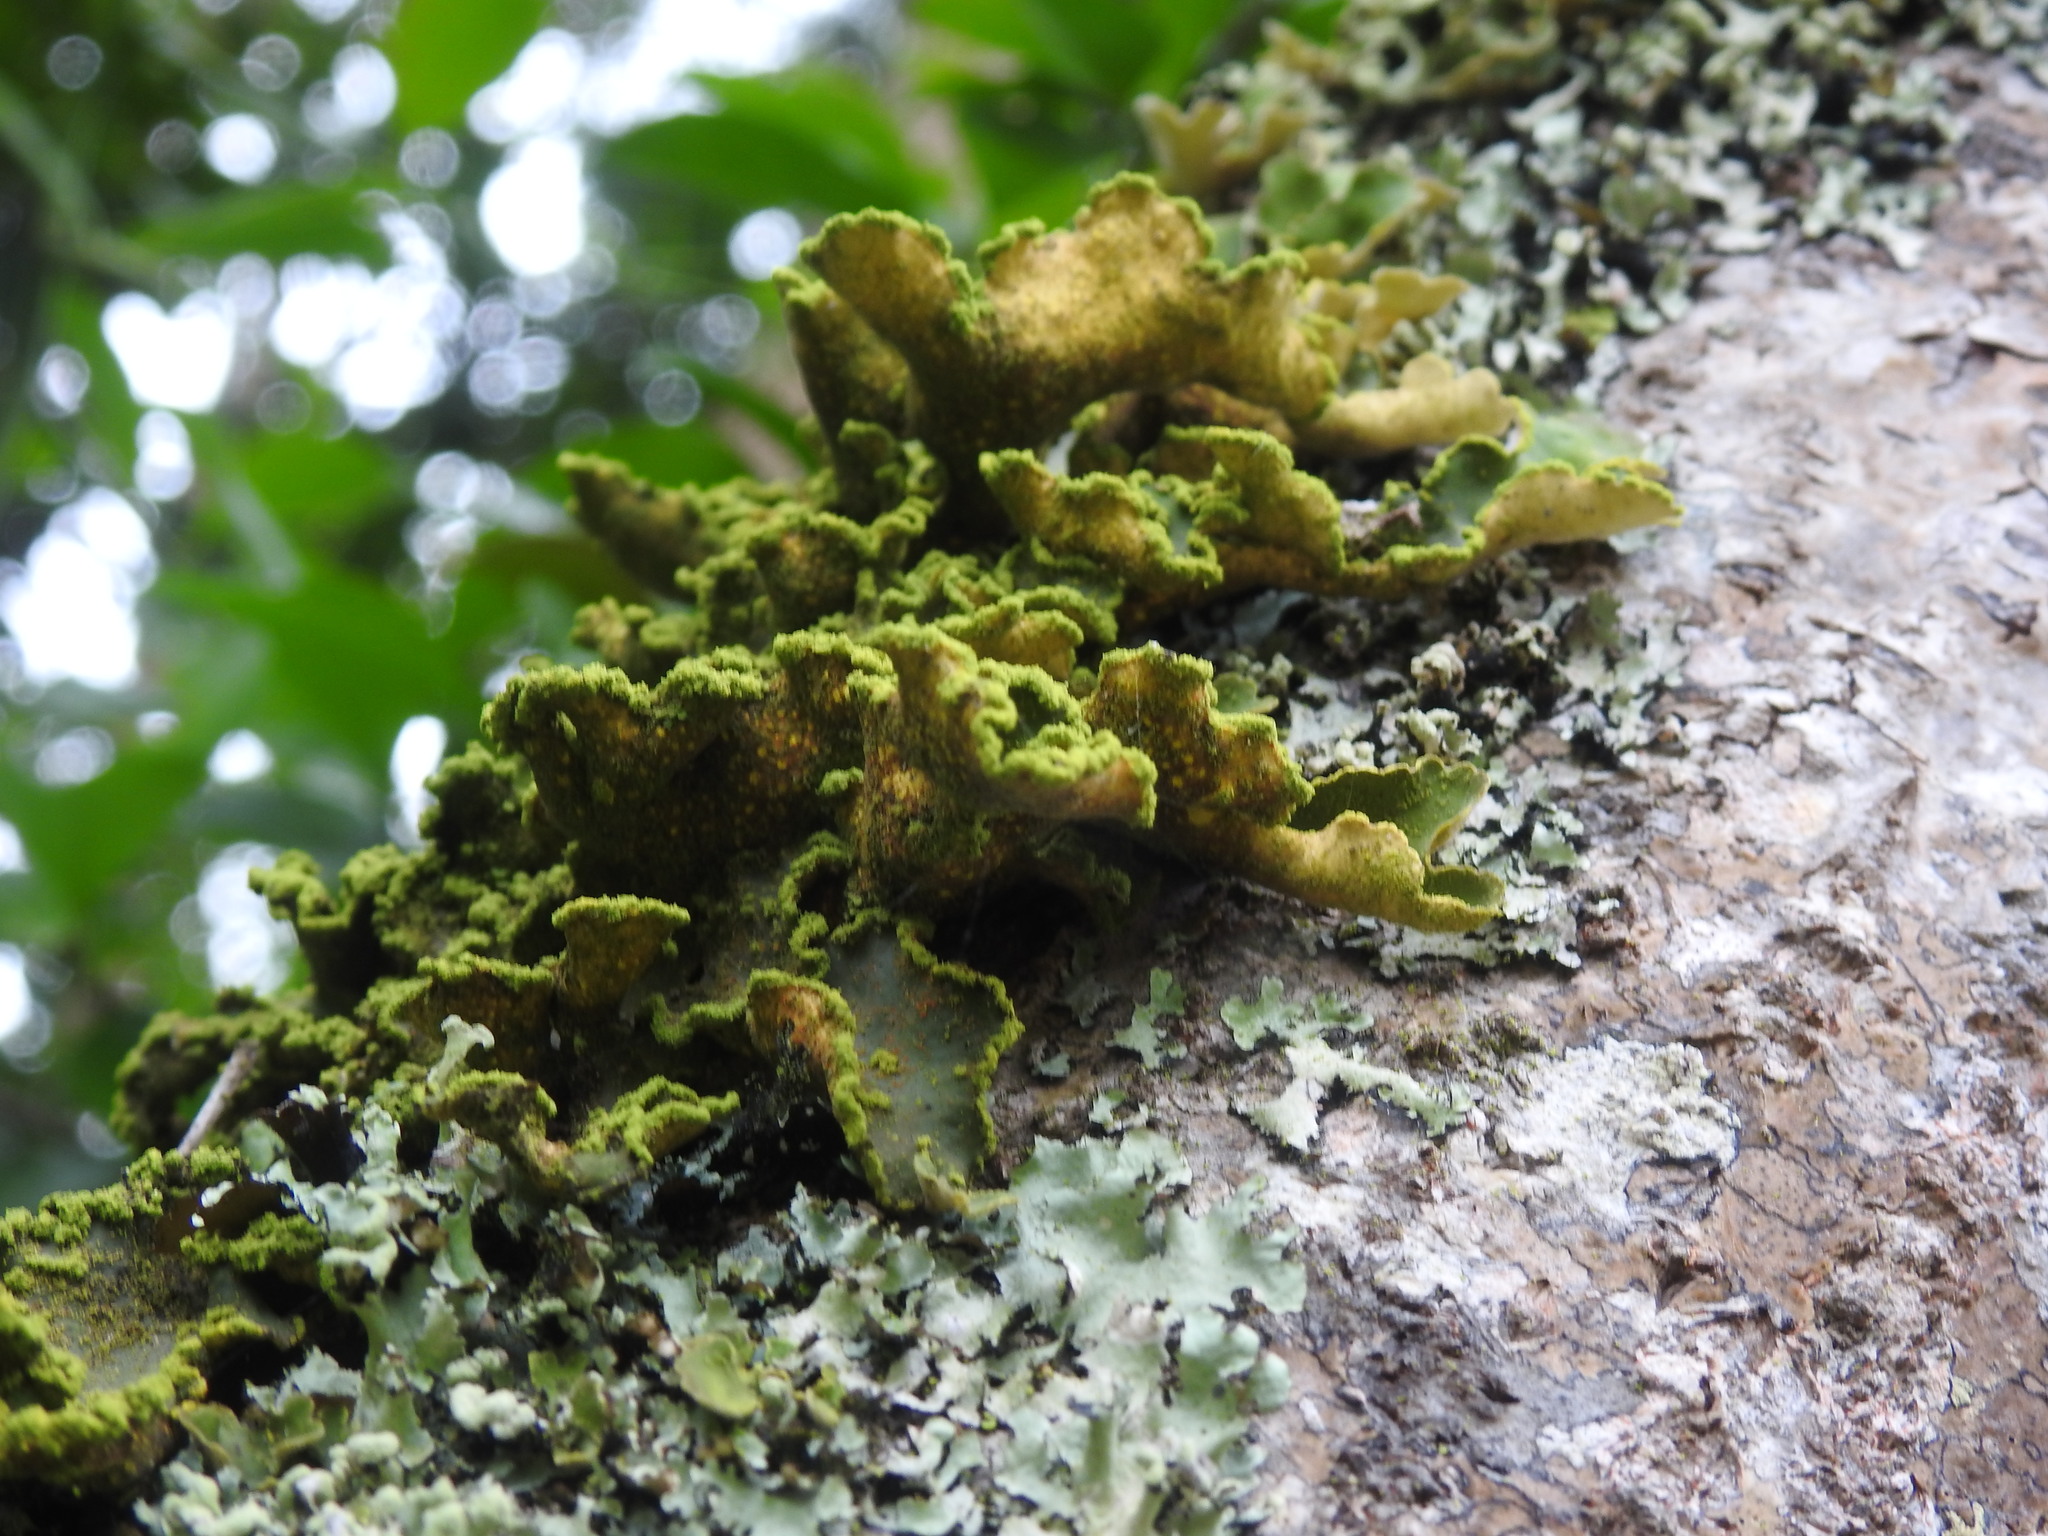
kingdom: Fungi
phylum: Ascomycota
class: Lecanoromycetes
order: Peltigerales
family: Lobariaceae
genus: Pseudocyphellaria
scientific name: Pseudocyphellaria aurata
